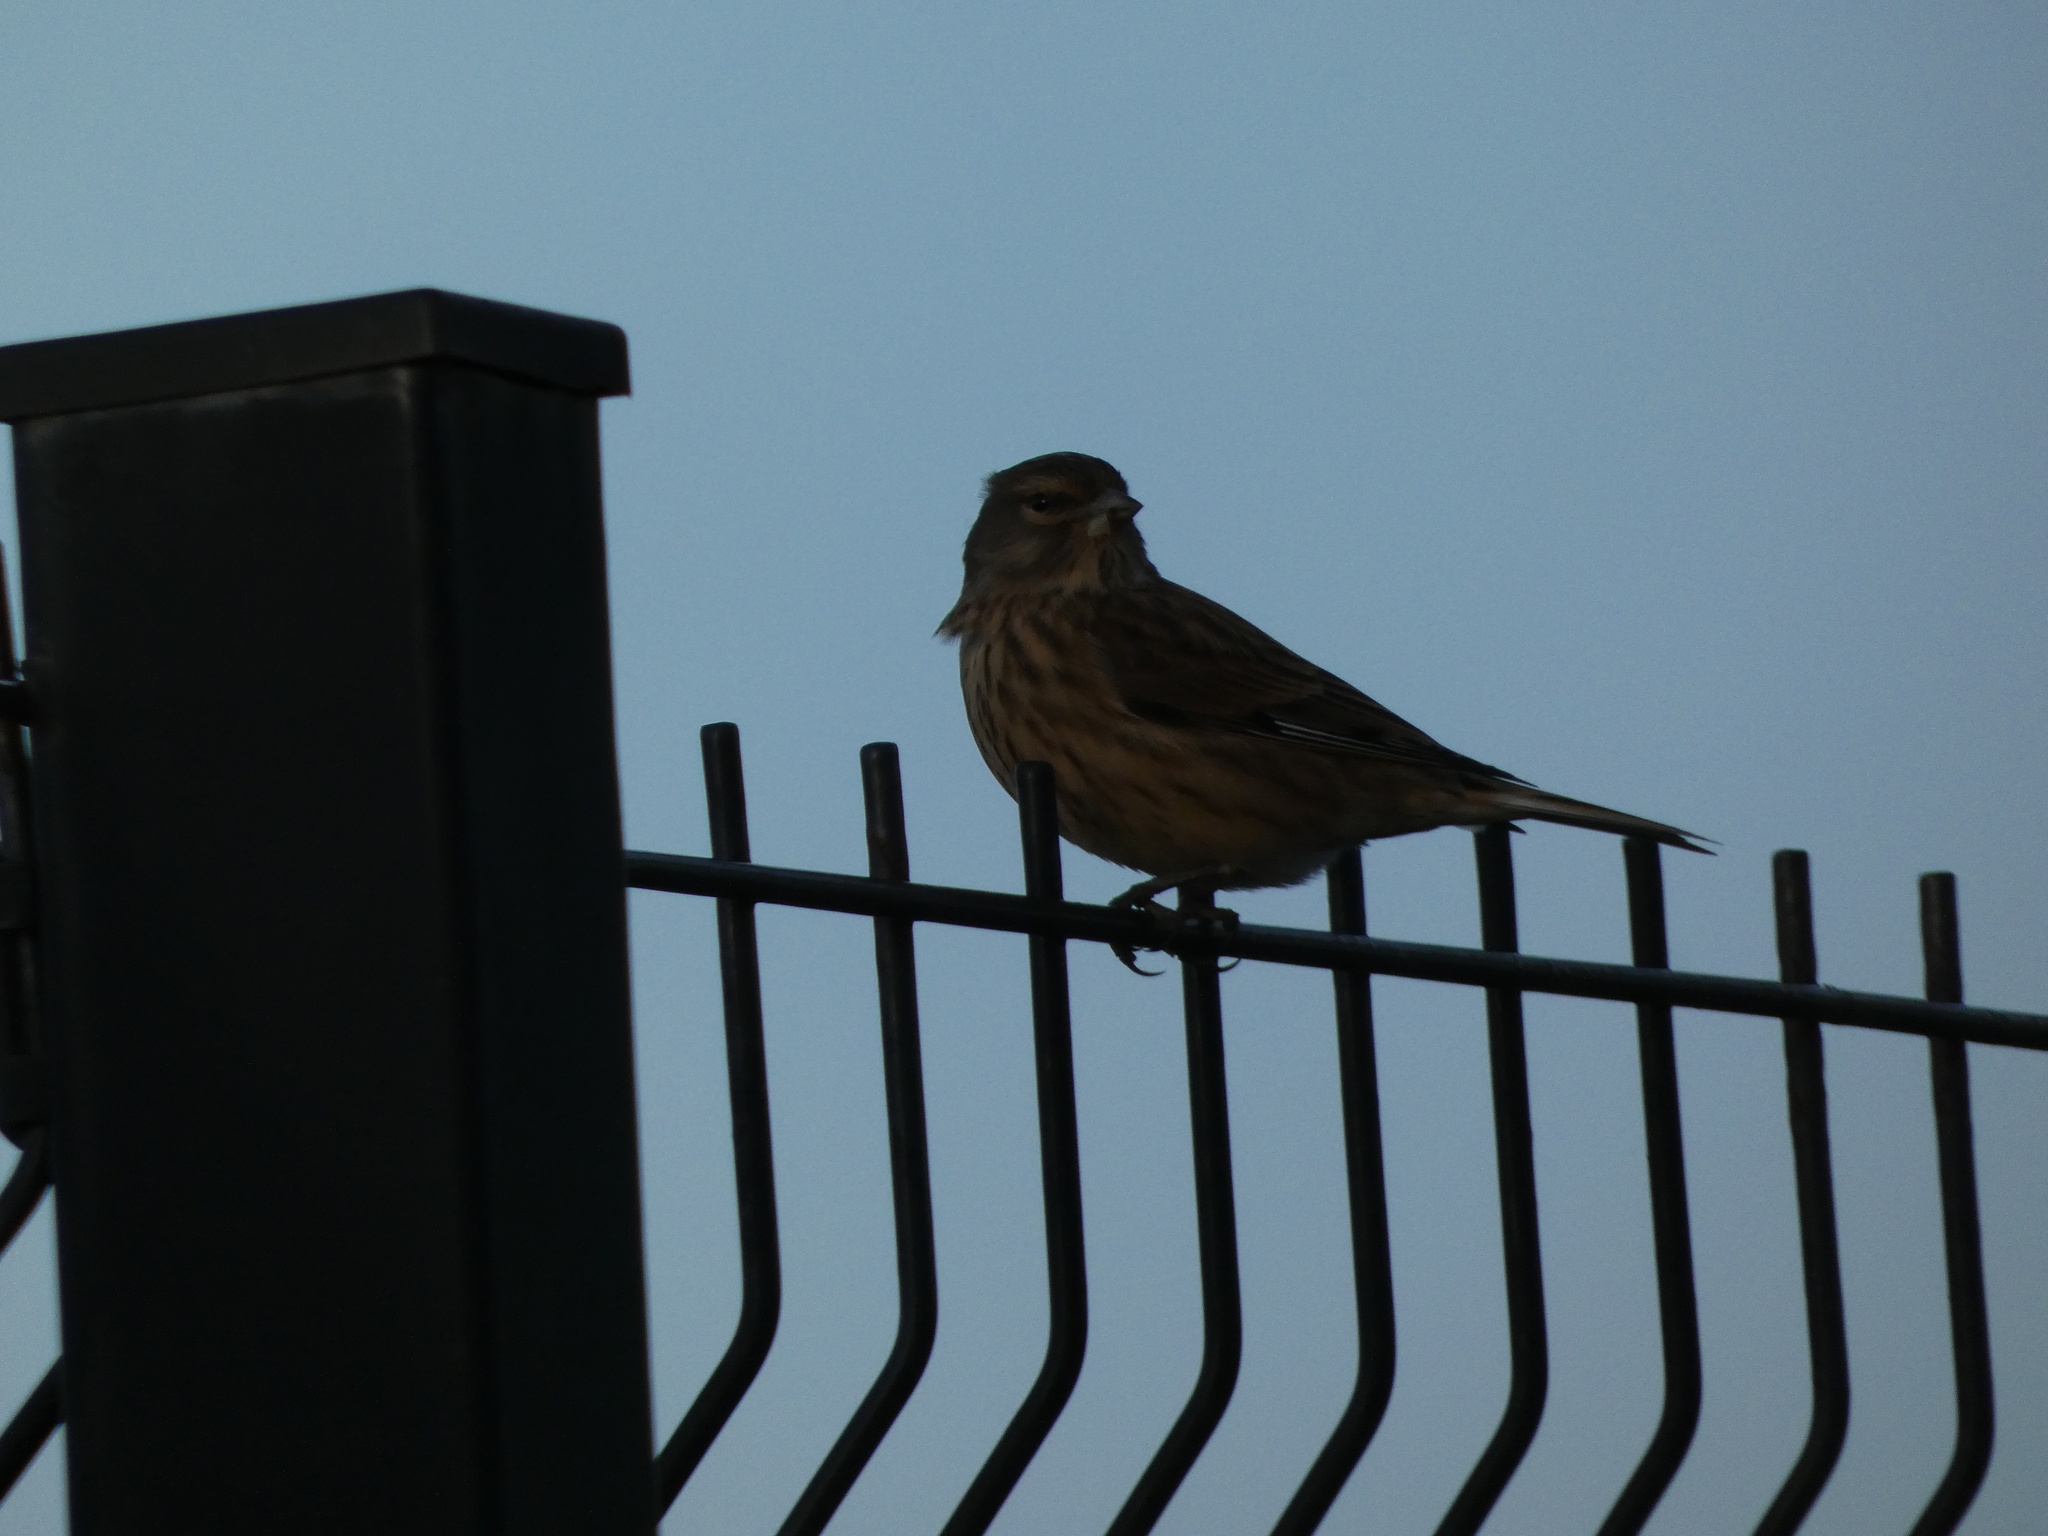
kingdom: Animalia
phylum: Chordata
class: Aves
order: Passeriformes
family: Fringillidae
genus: Linaria
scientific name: Linaria cannabina
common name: Common linnet
